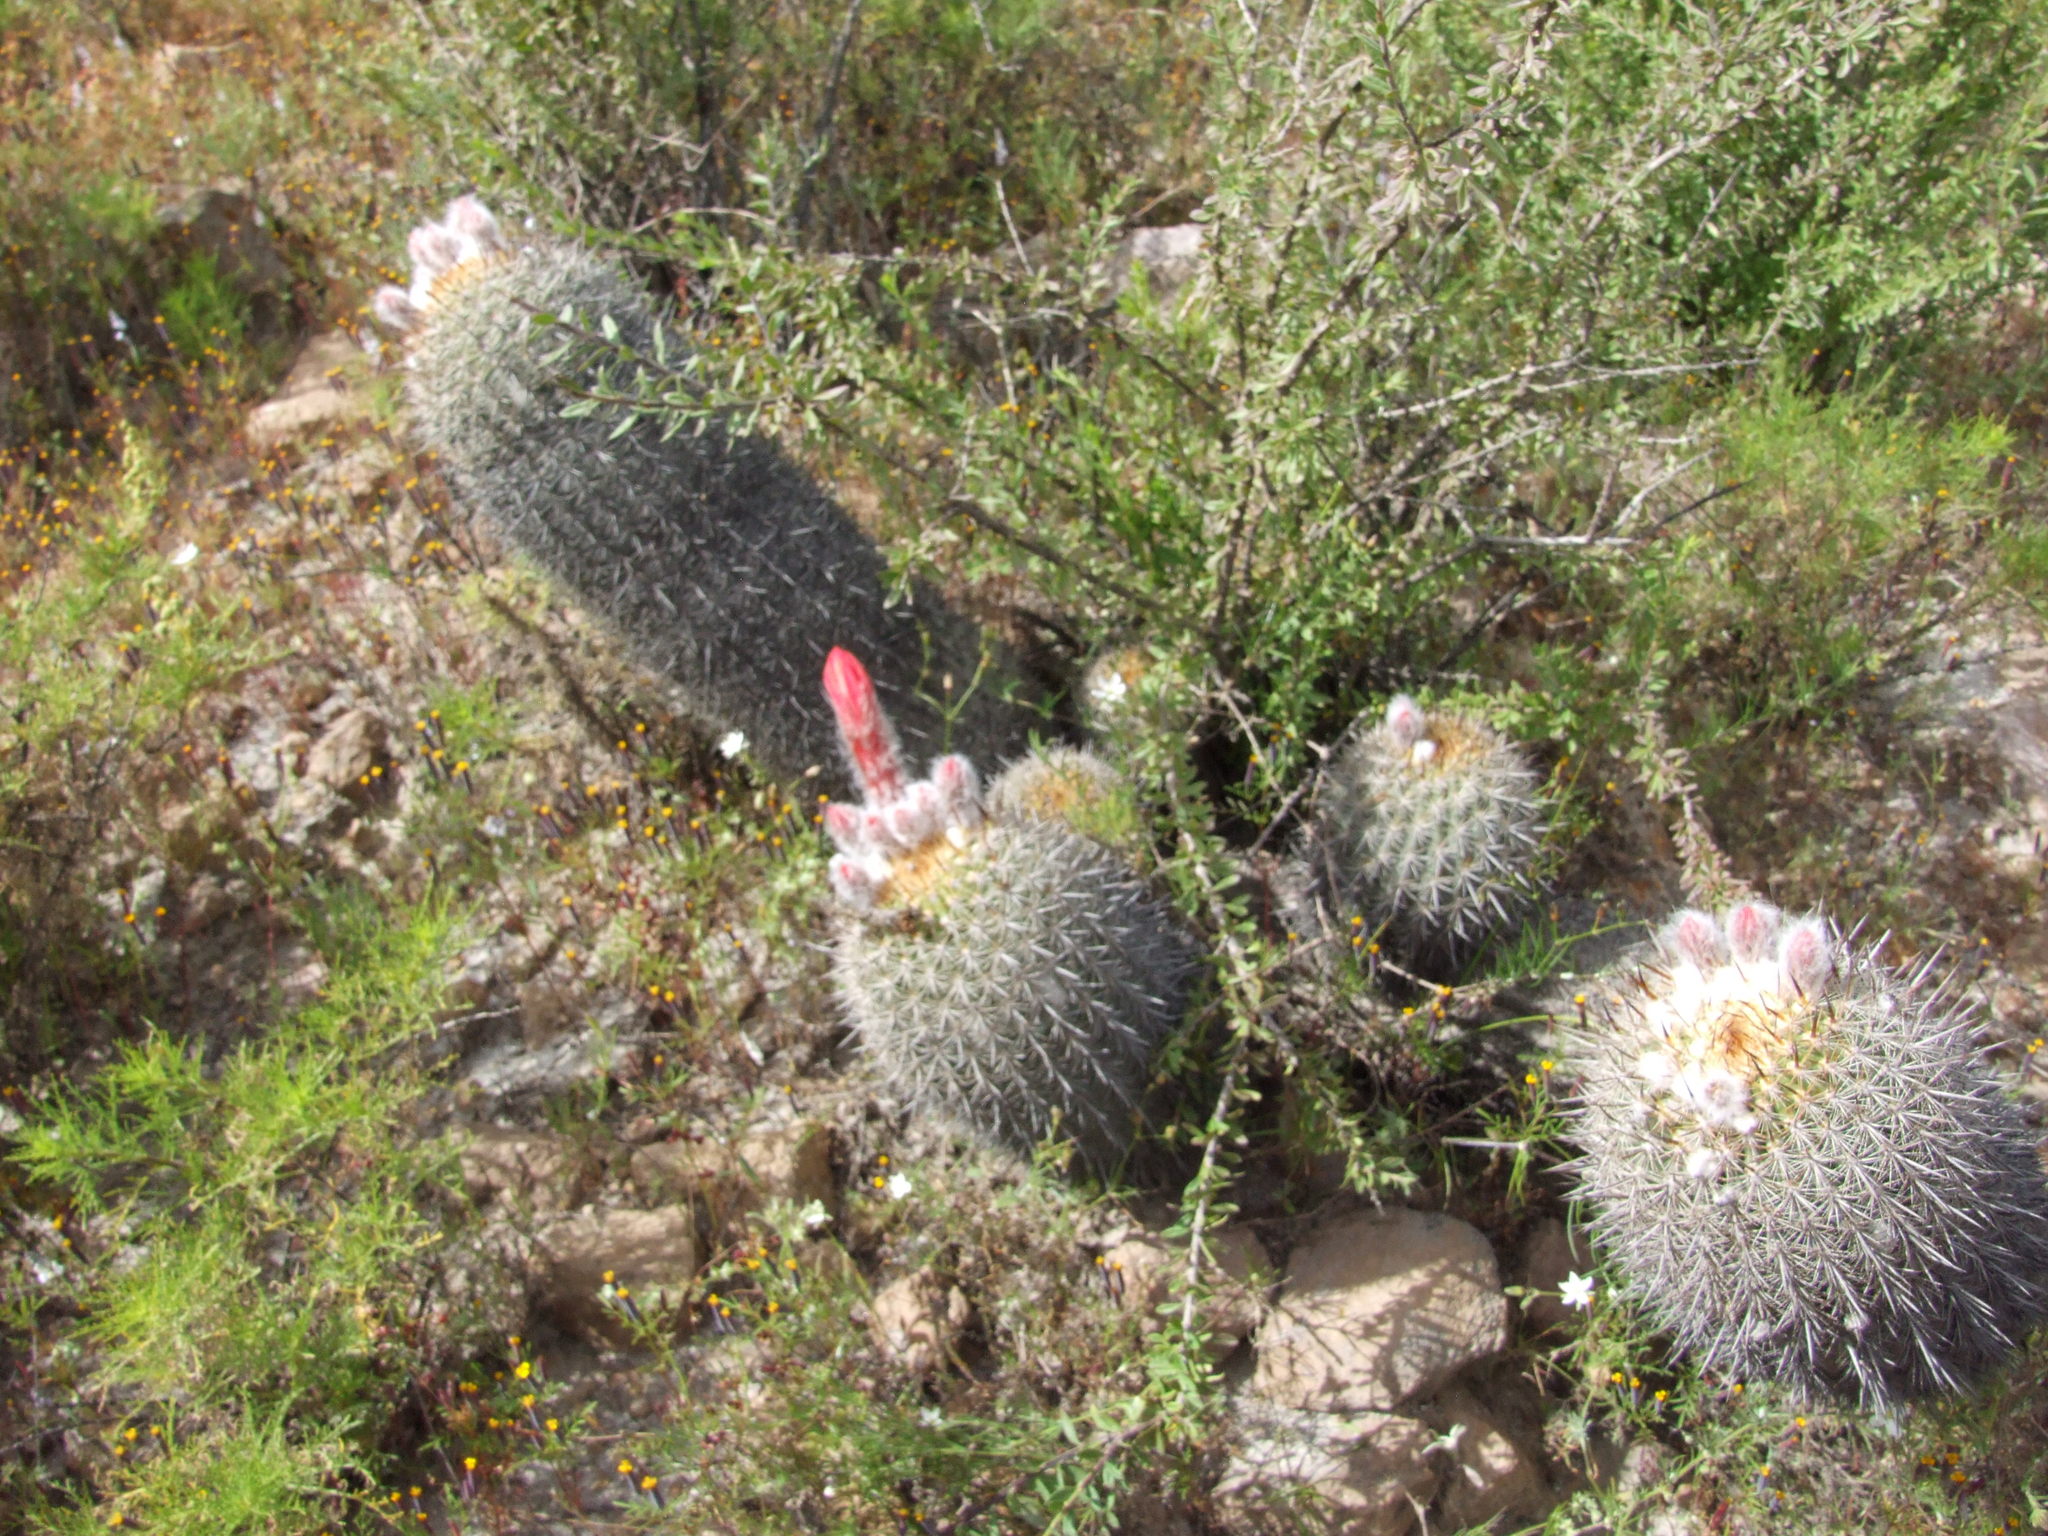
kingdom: Plantae
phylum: Tracheophyta
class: Magnoliopsida
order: Caryophyllales
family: Cactaceae
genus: Oreocereus
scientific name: Oreocereus hempelianus
